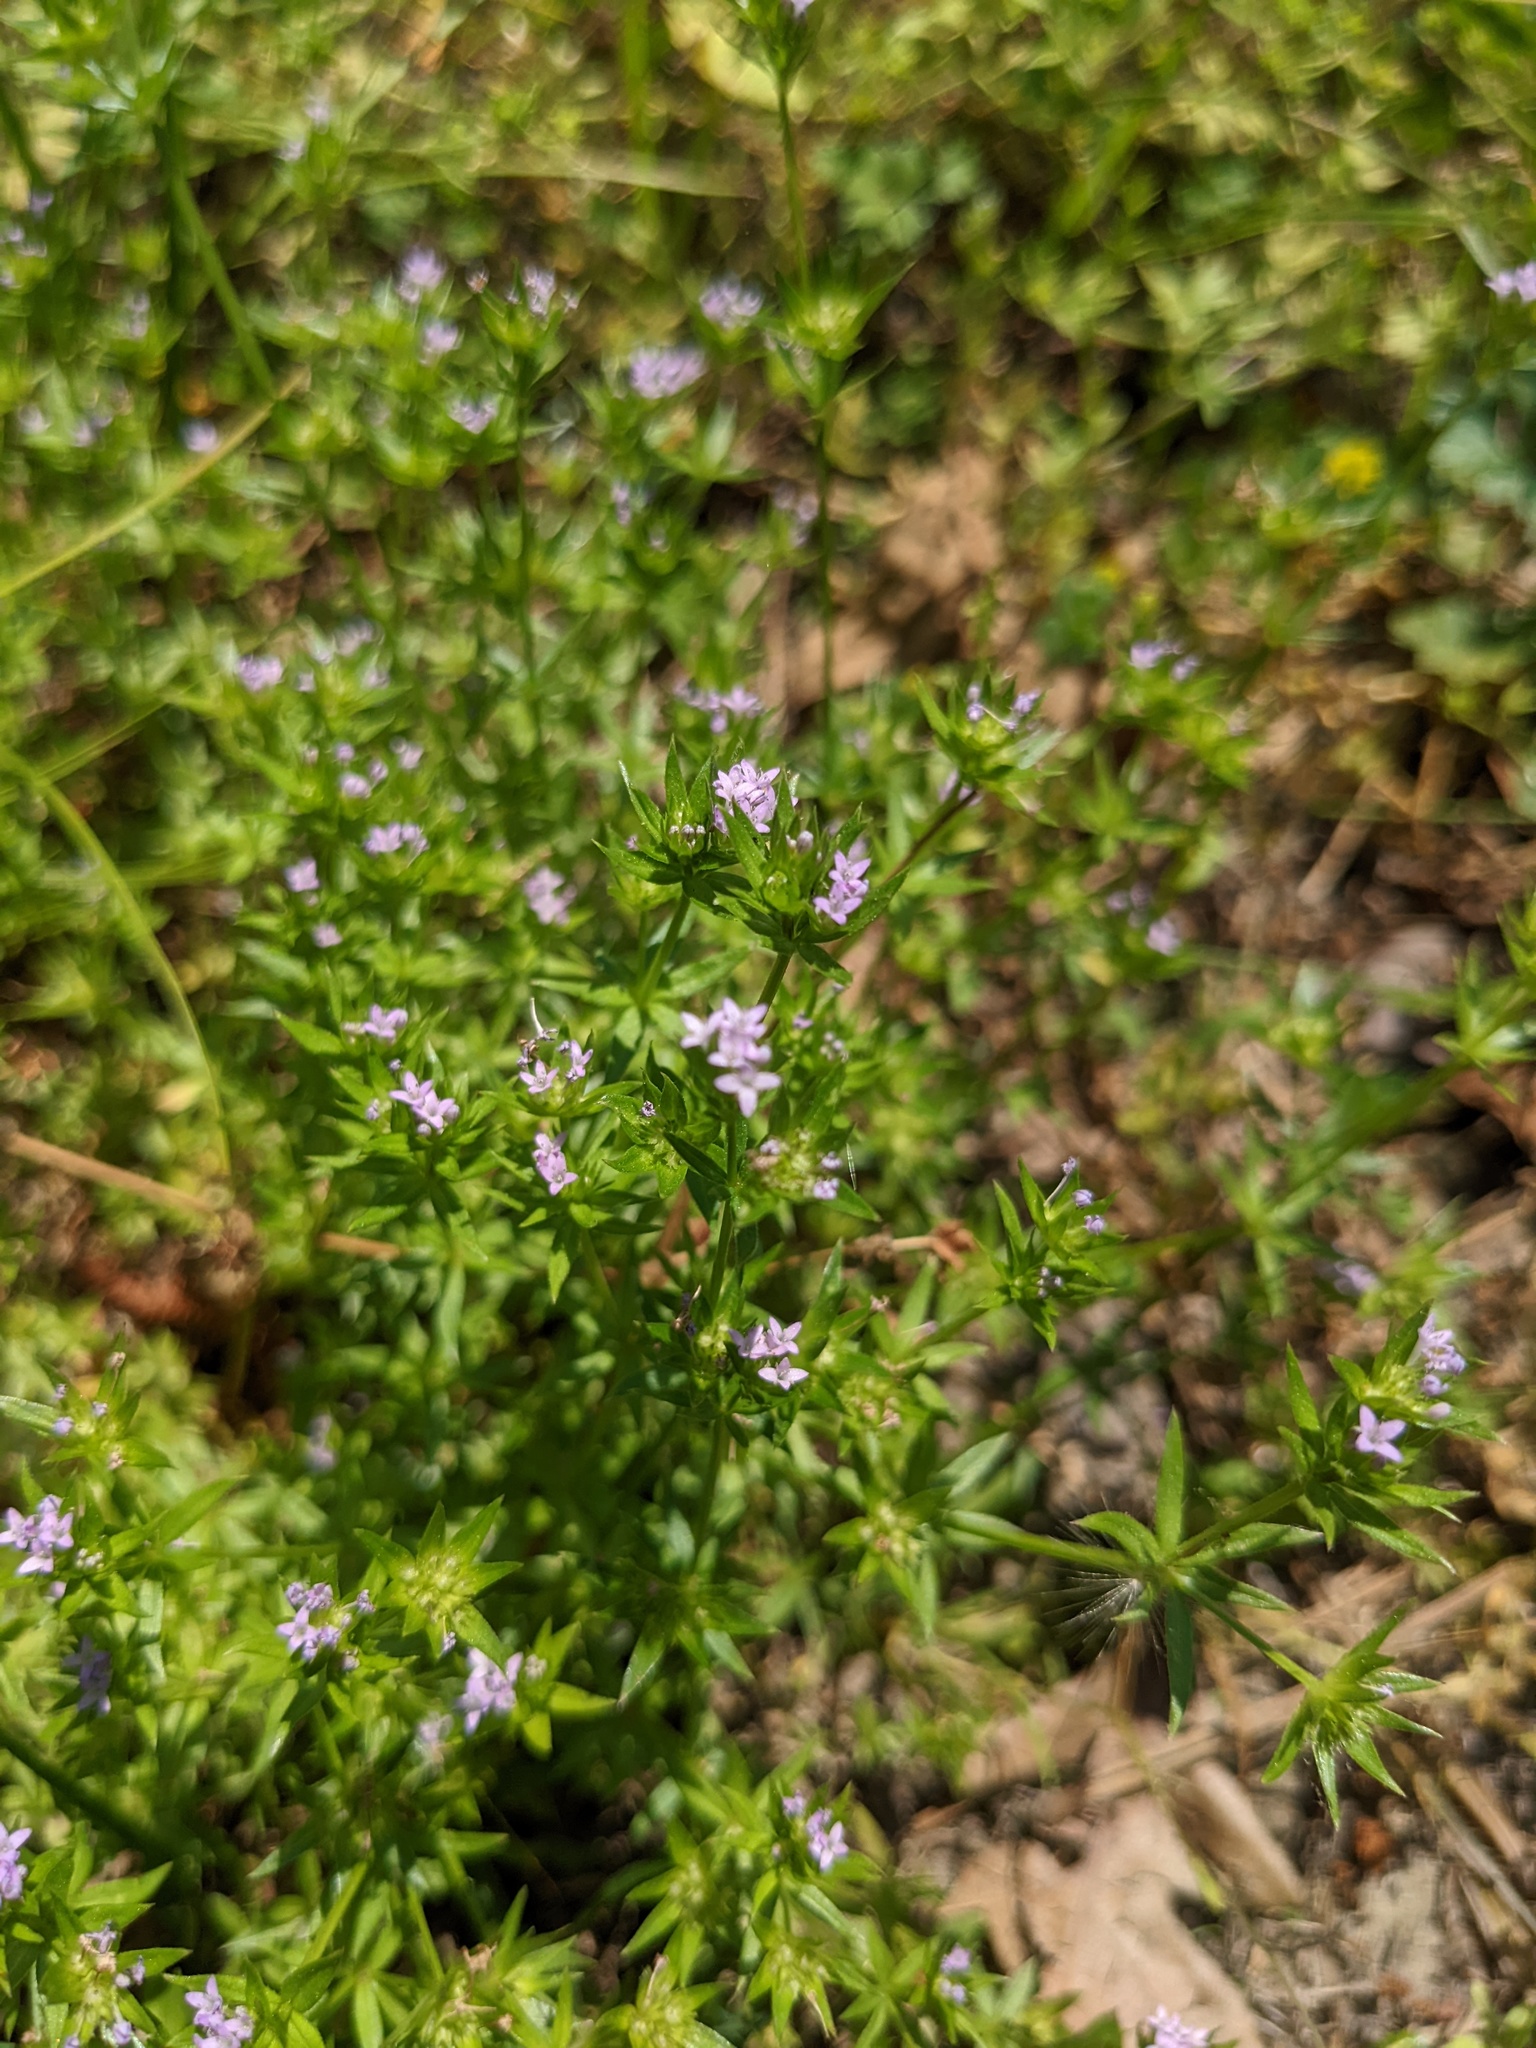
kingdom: Plantae
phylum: Tracheophyta
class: Magnoliopsida
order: Gentianales
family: Rubiaceae
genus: Sherardia
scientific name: Sherardia arvensis
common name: Field madder
